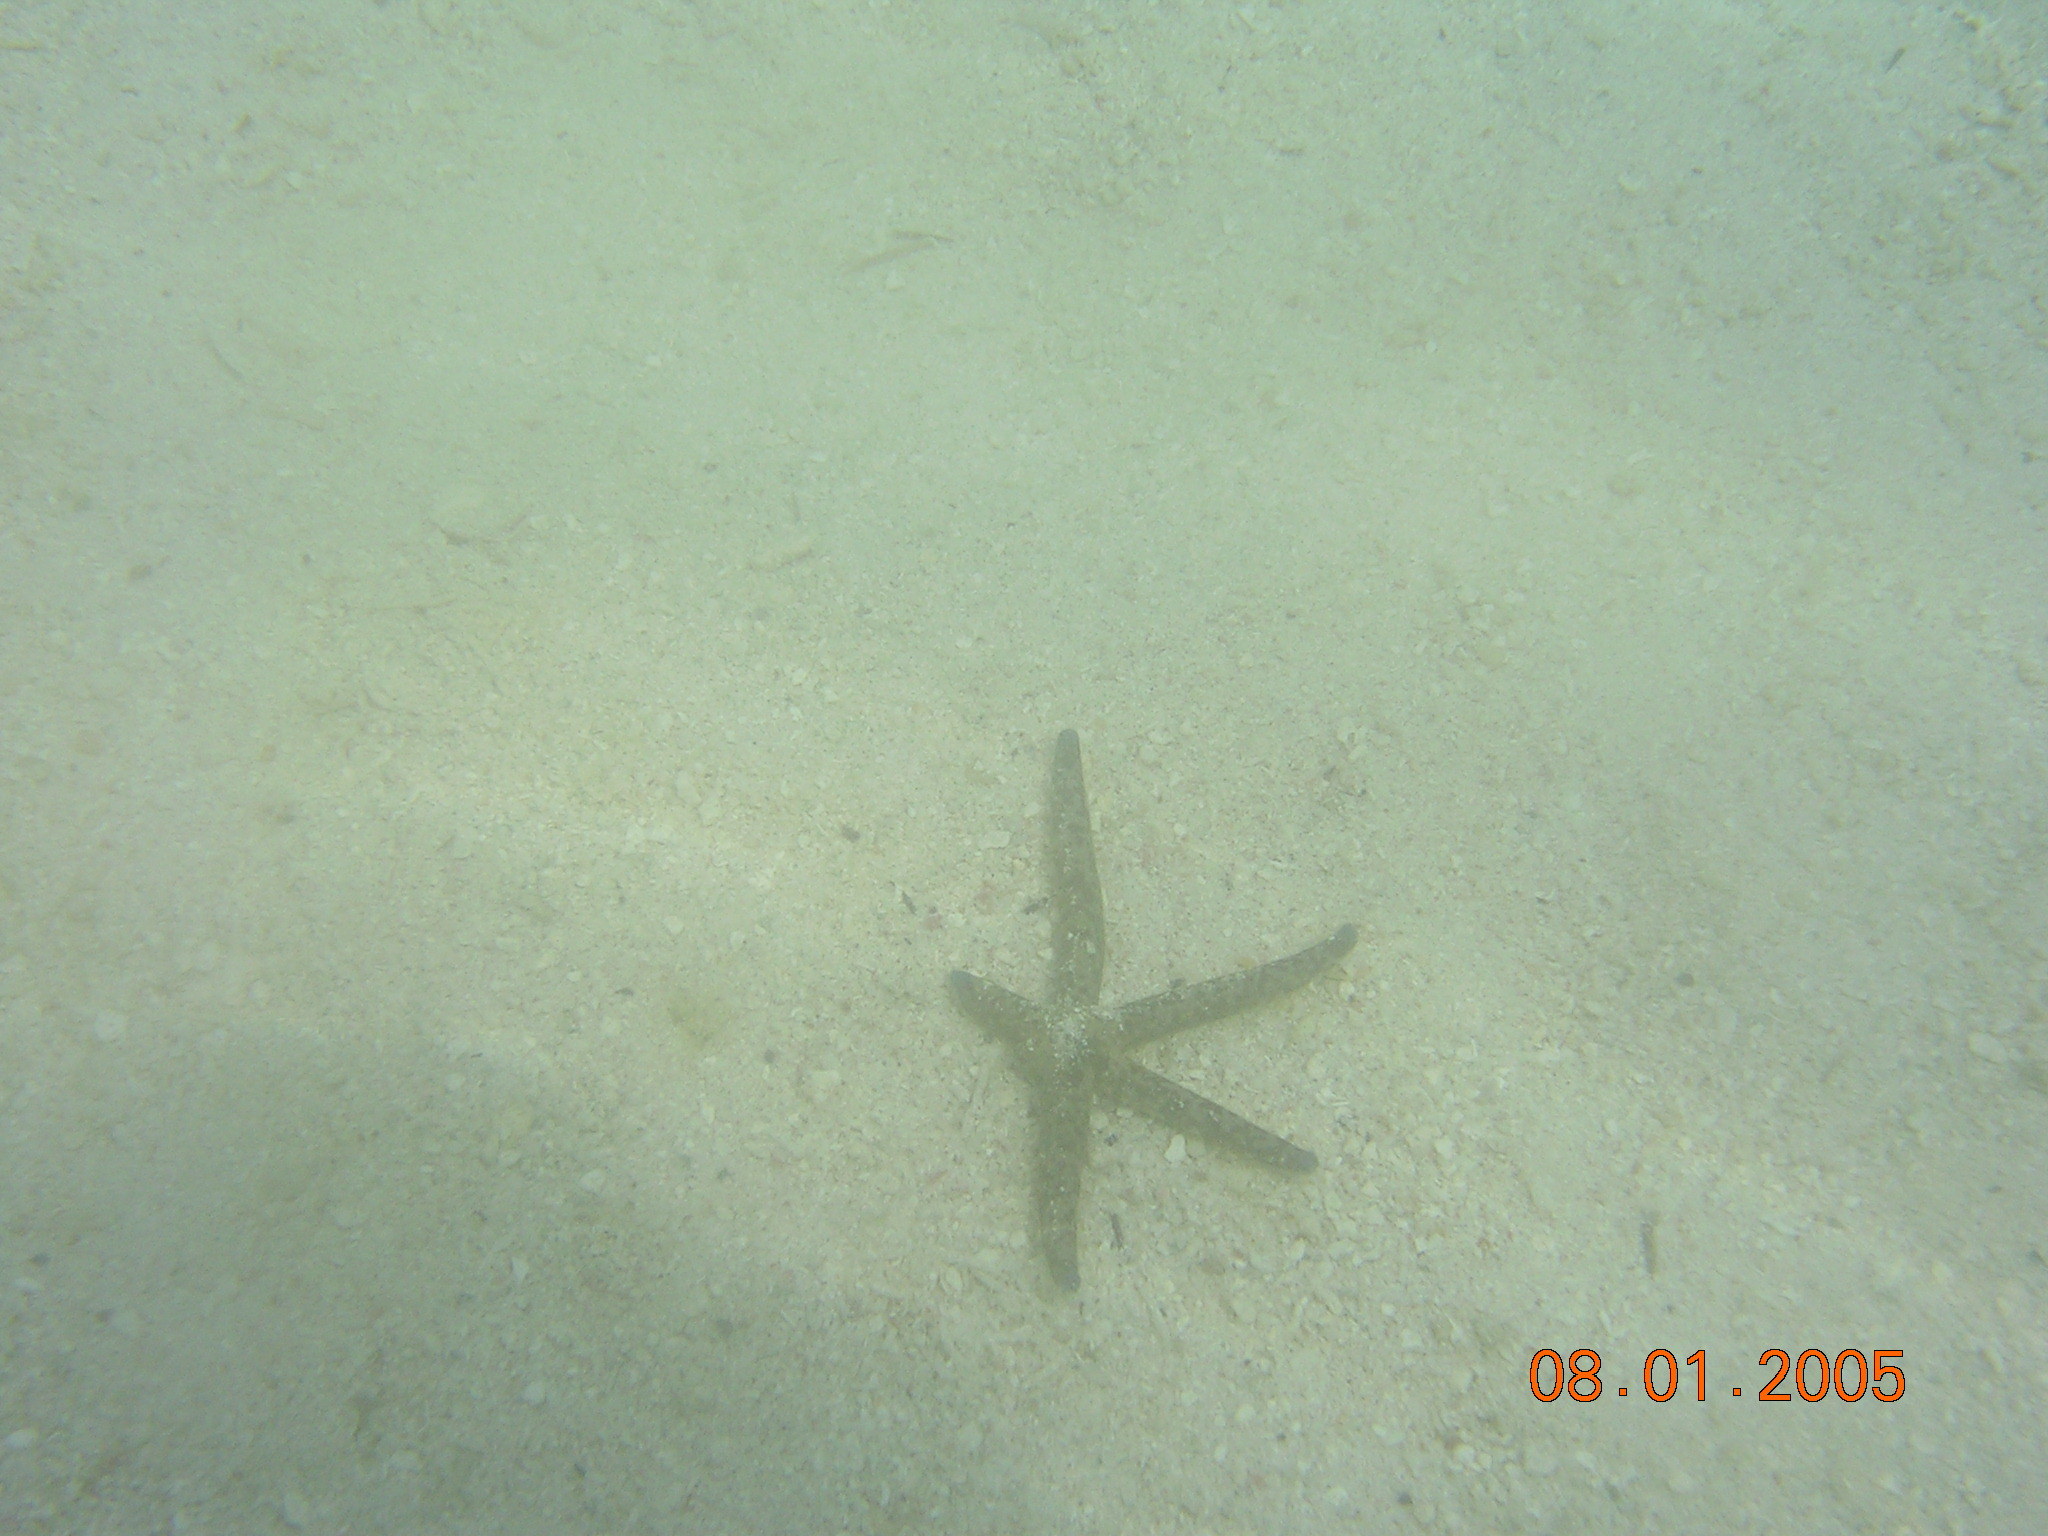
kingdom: Animalia
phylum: Echinodermata
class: Asteroidea
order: Valvatida
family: Ophidiasteridae
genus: Linckia
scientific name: Linckia multifora
